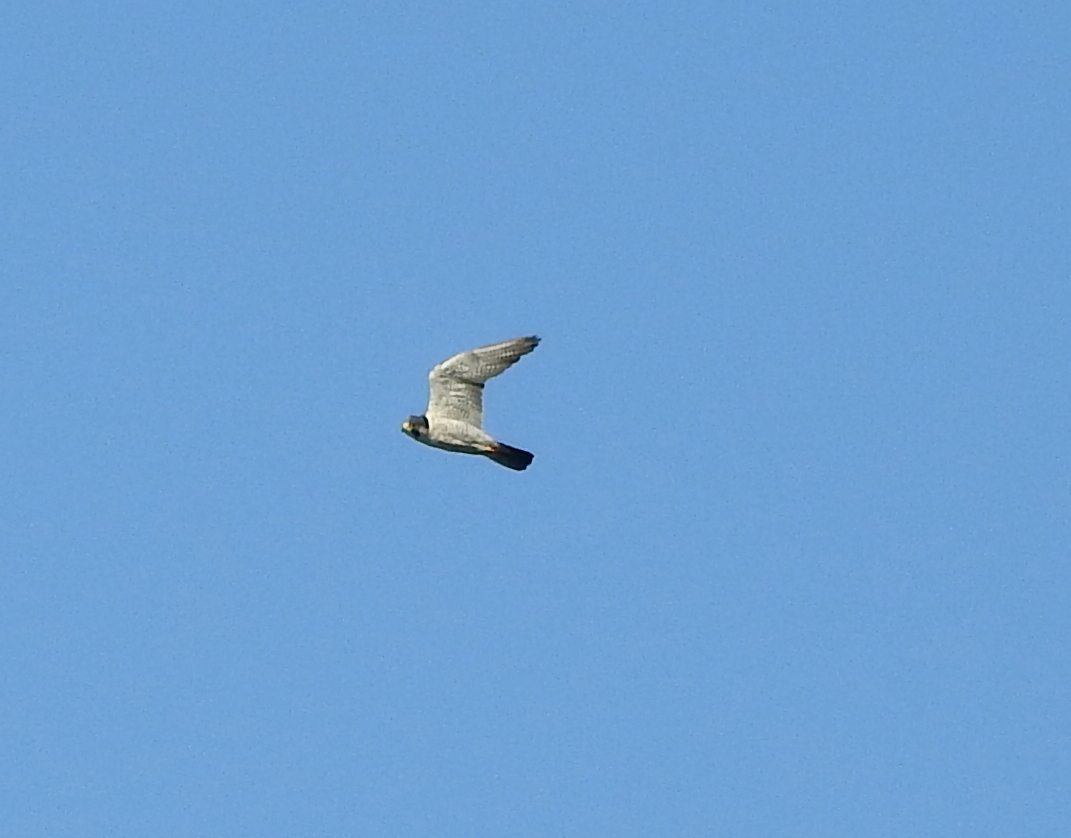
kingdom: Animalia
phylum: Chordata
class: Aves
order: Falconiformes
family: Falconidae
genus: Falco
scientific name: Falco peregrinus
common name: Peregrine falcon
